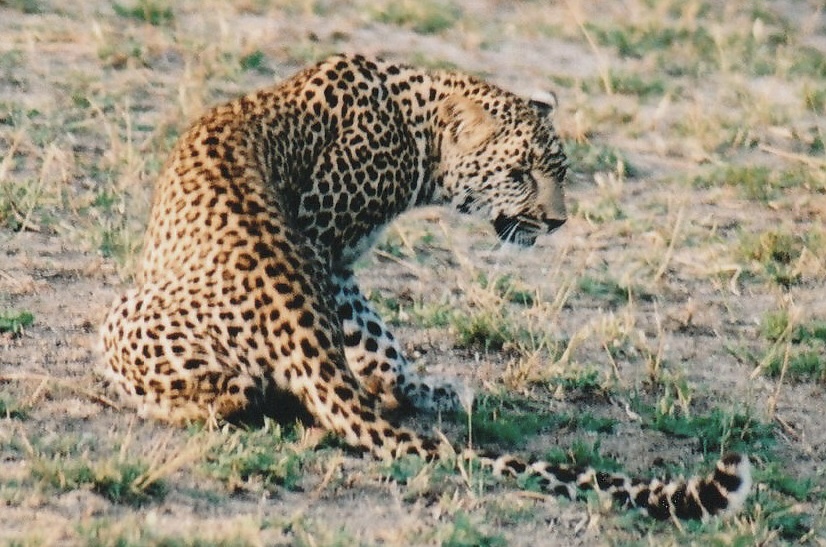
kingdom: Animalia
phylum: Chordata
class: Mammalia
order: Carnivora
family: Felidae
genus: Panthera
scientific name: Panthera pardus
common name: Leopard
